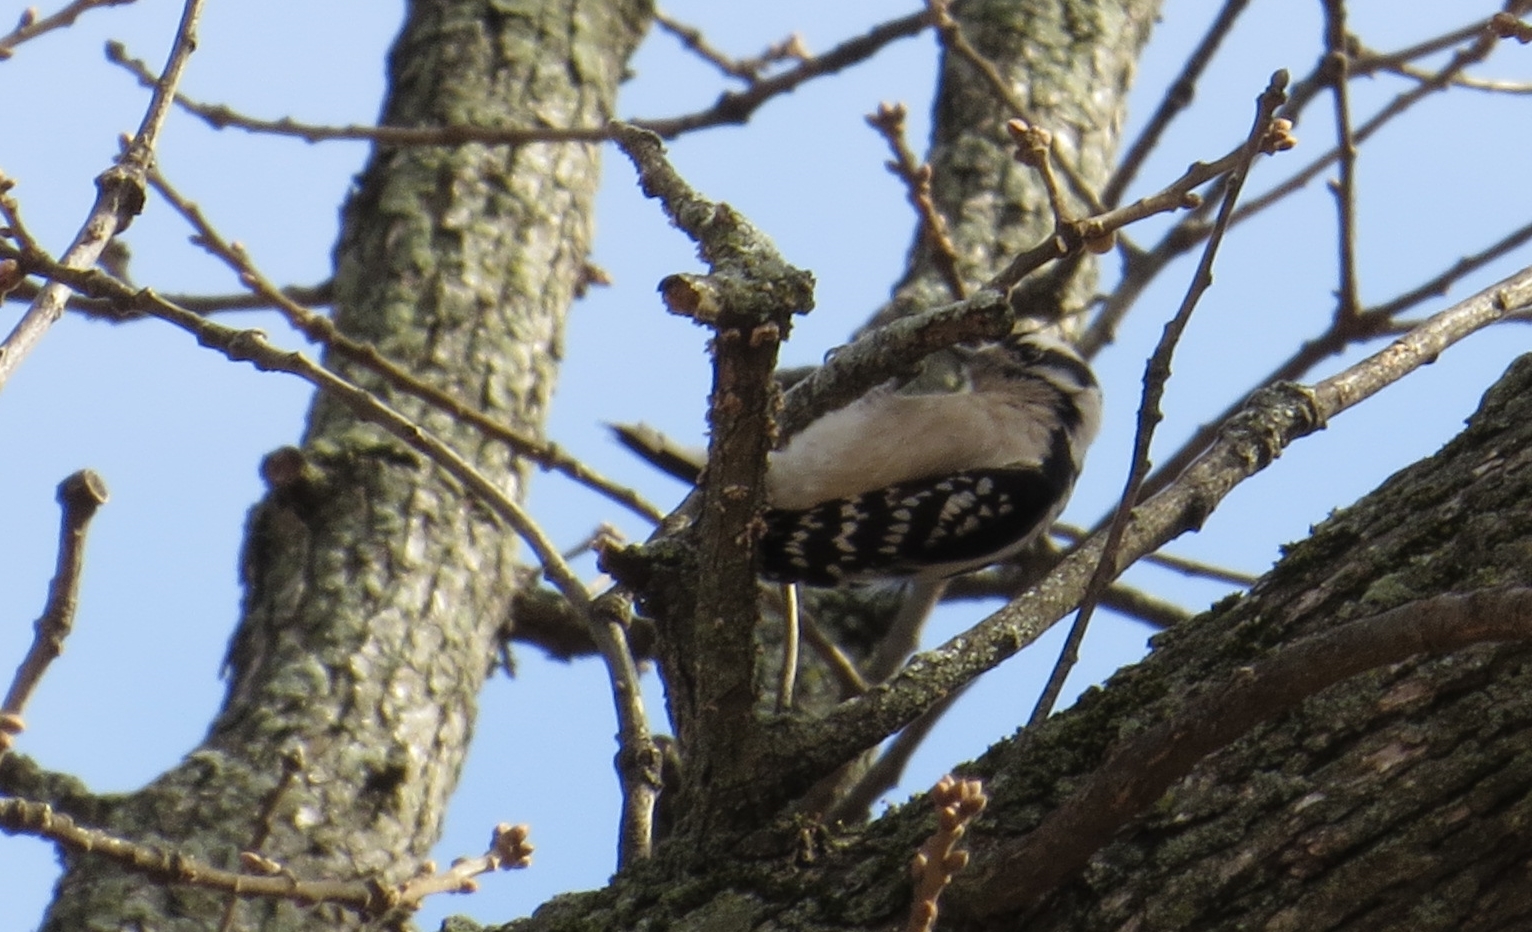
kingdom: Animalia
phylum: Chordata
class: Aves
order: Piciformes
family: Picidae
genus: Dryobates
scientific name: Dryobates pubescens
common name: Downy woodpecker
